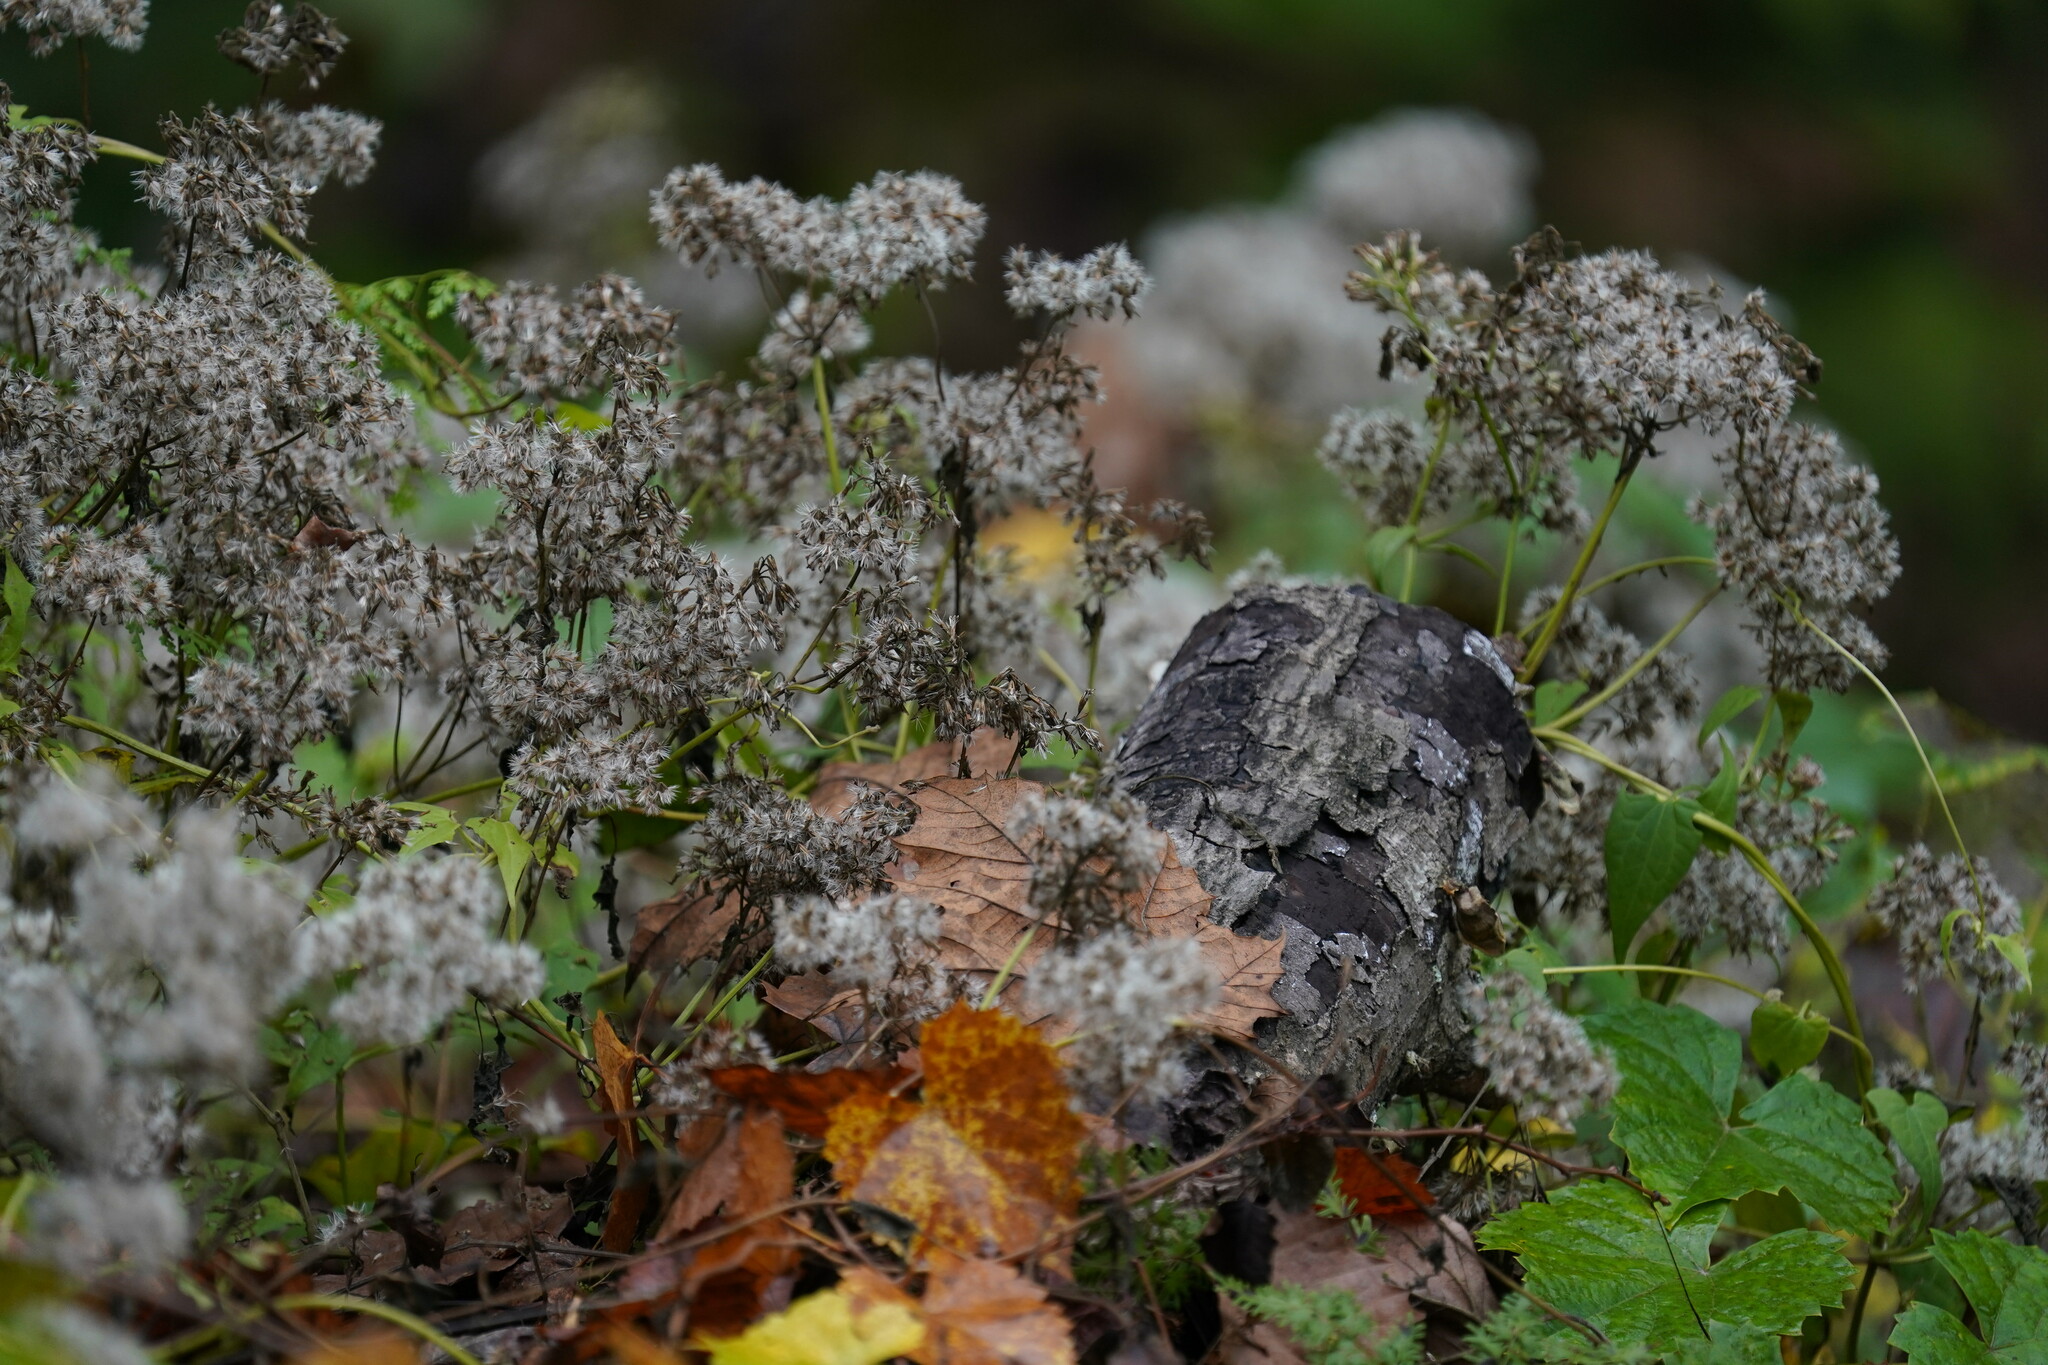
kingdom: Plantae
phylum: Tracheophyta
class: Magnoliopsida
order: Asterales
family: Asteraceae
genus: Mikania
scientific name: Mikania scandens
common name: Climbing hempvine
